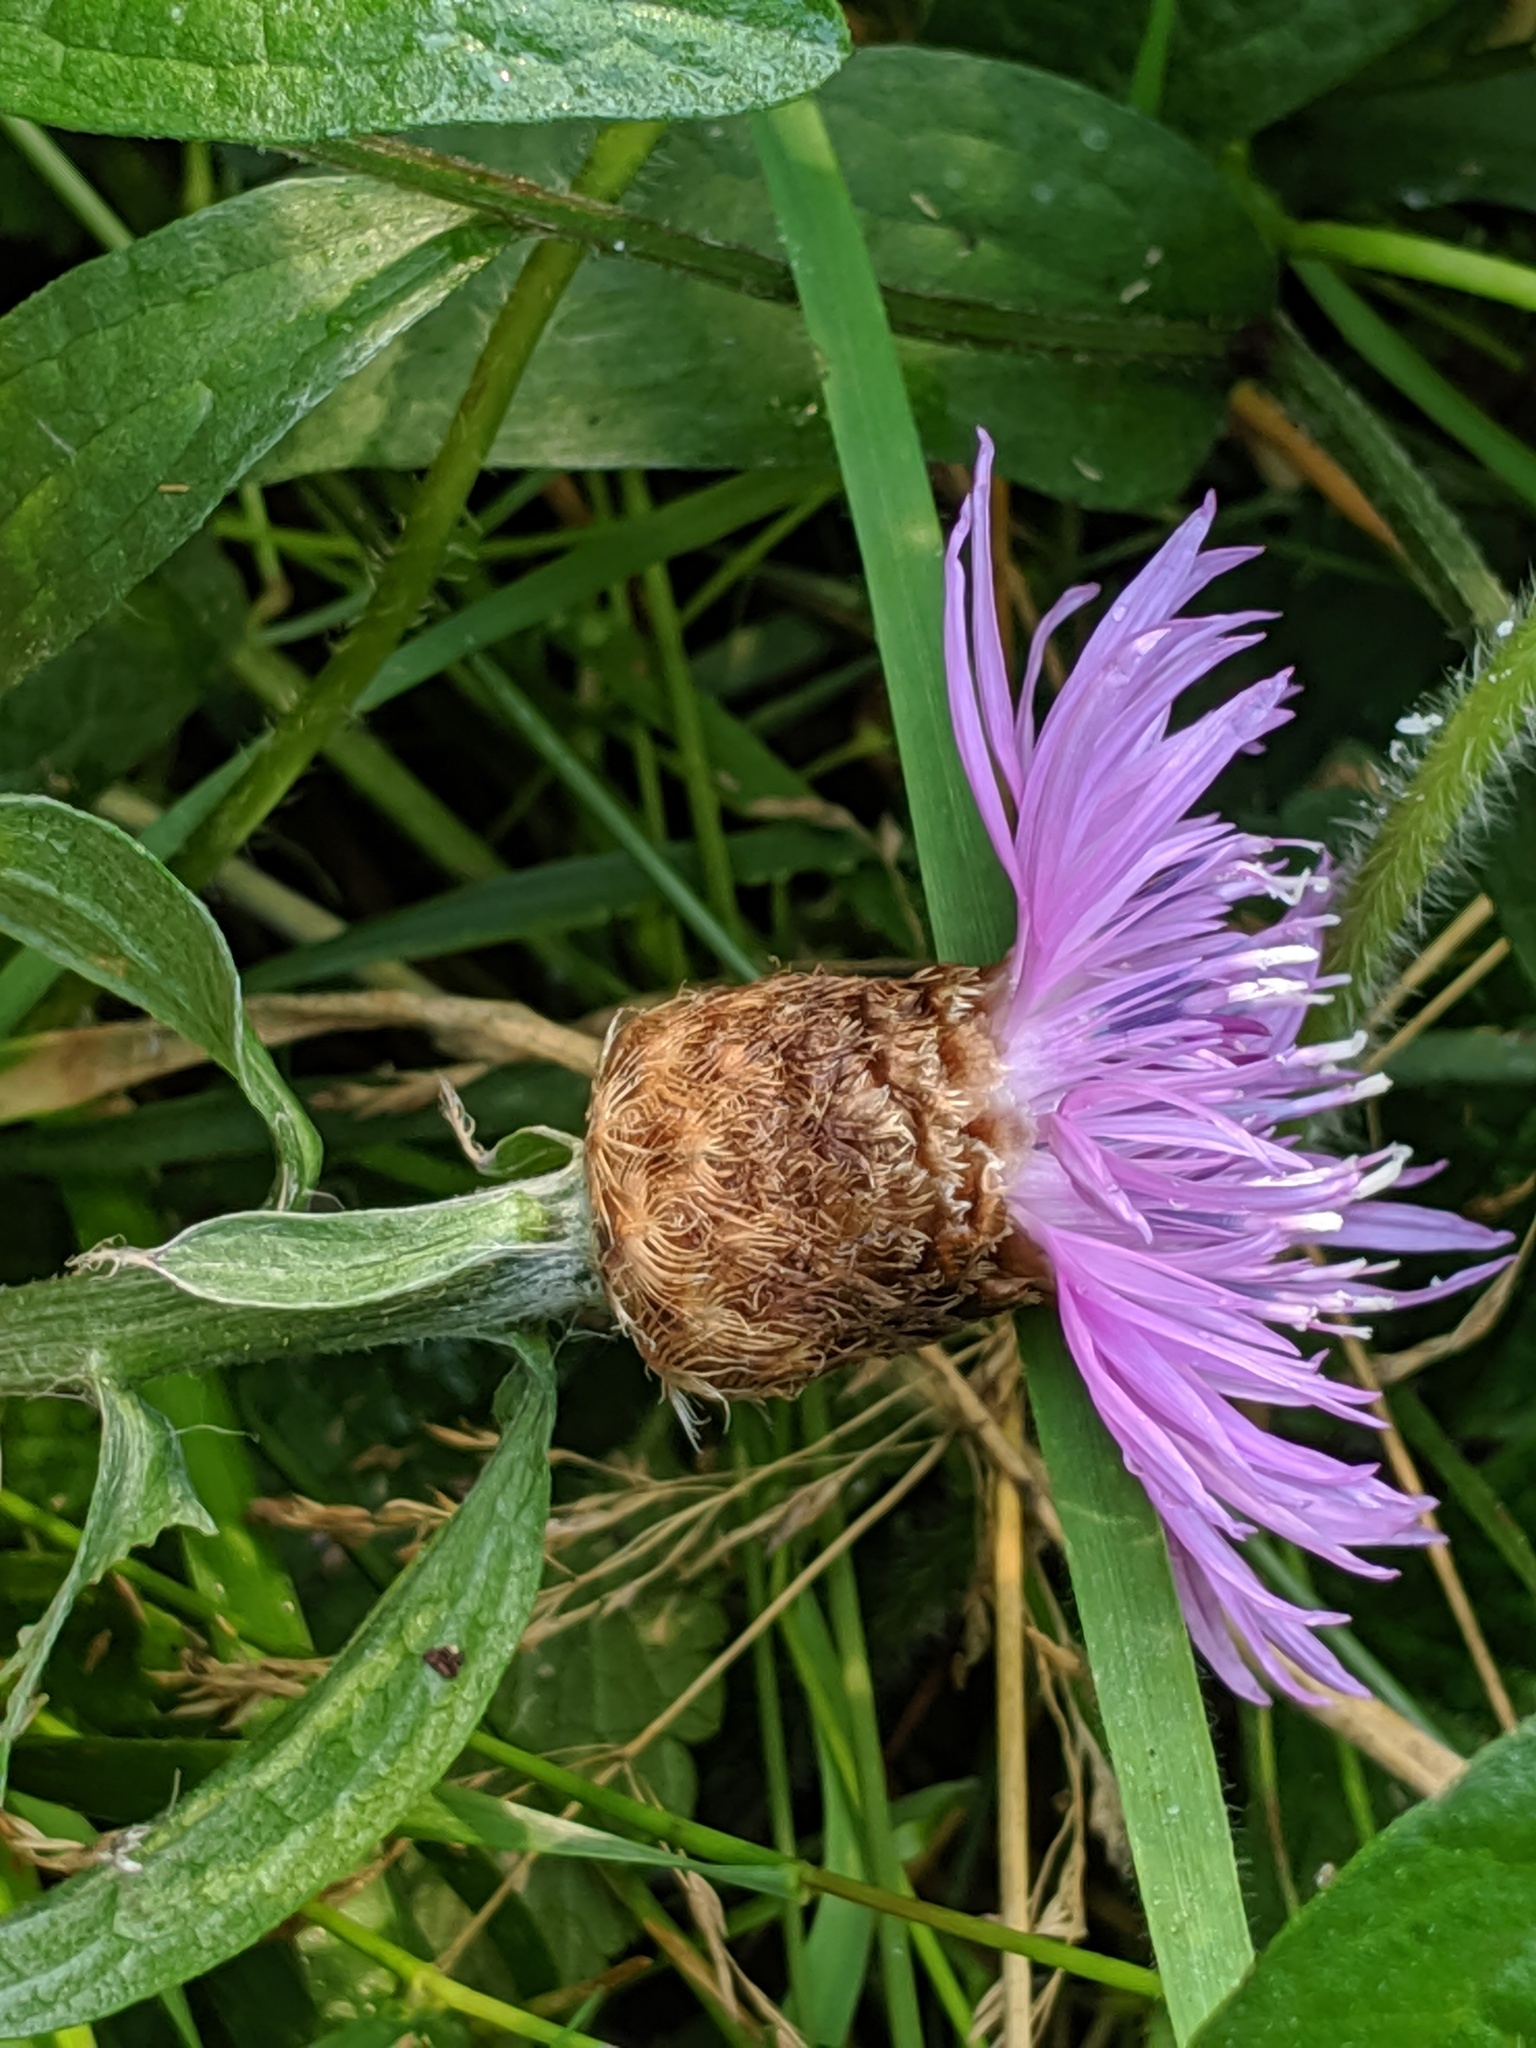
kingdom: Plantae
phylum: Tracheophyta
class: Magnoliopsida
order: Asterales
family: Asteraceae
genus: Centaurea
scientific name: Centaurea gerstlaueri
